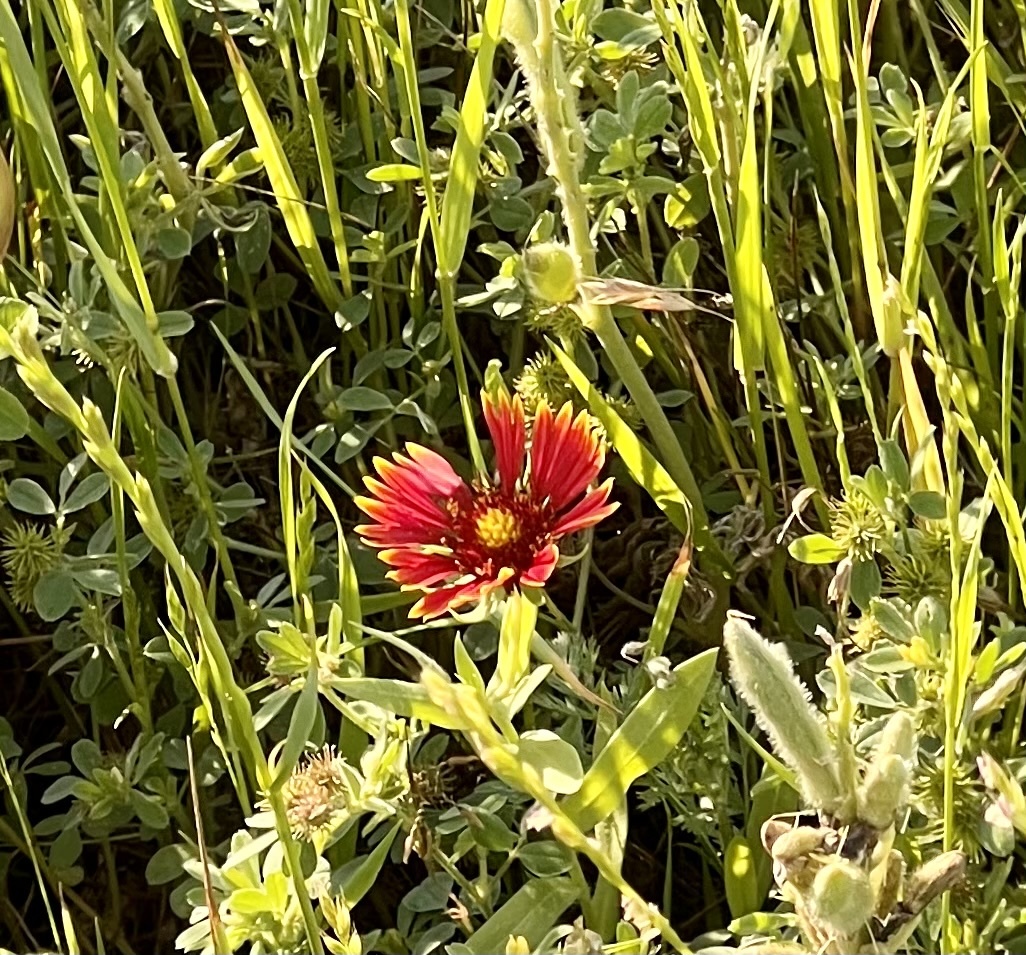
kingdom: Plantae
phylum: Tracheophyta
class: Magnoliopsida
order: Asterales
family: Asteraceae
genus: Gaillardia
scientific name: Gaillardia pulchella
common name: Firewheel
